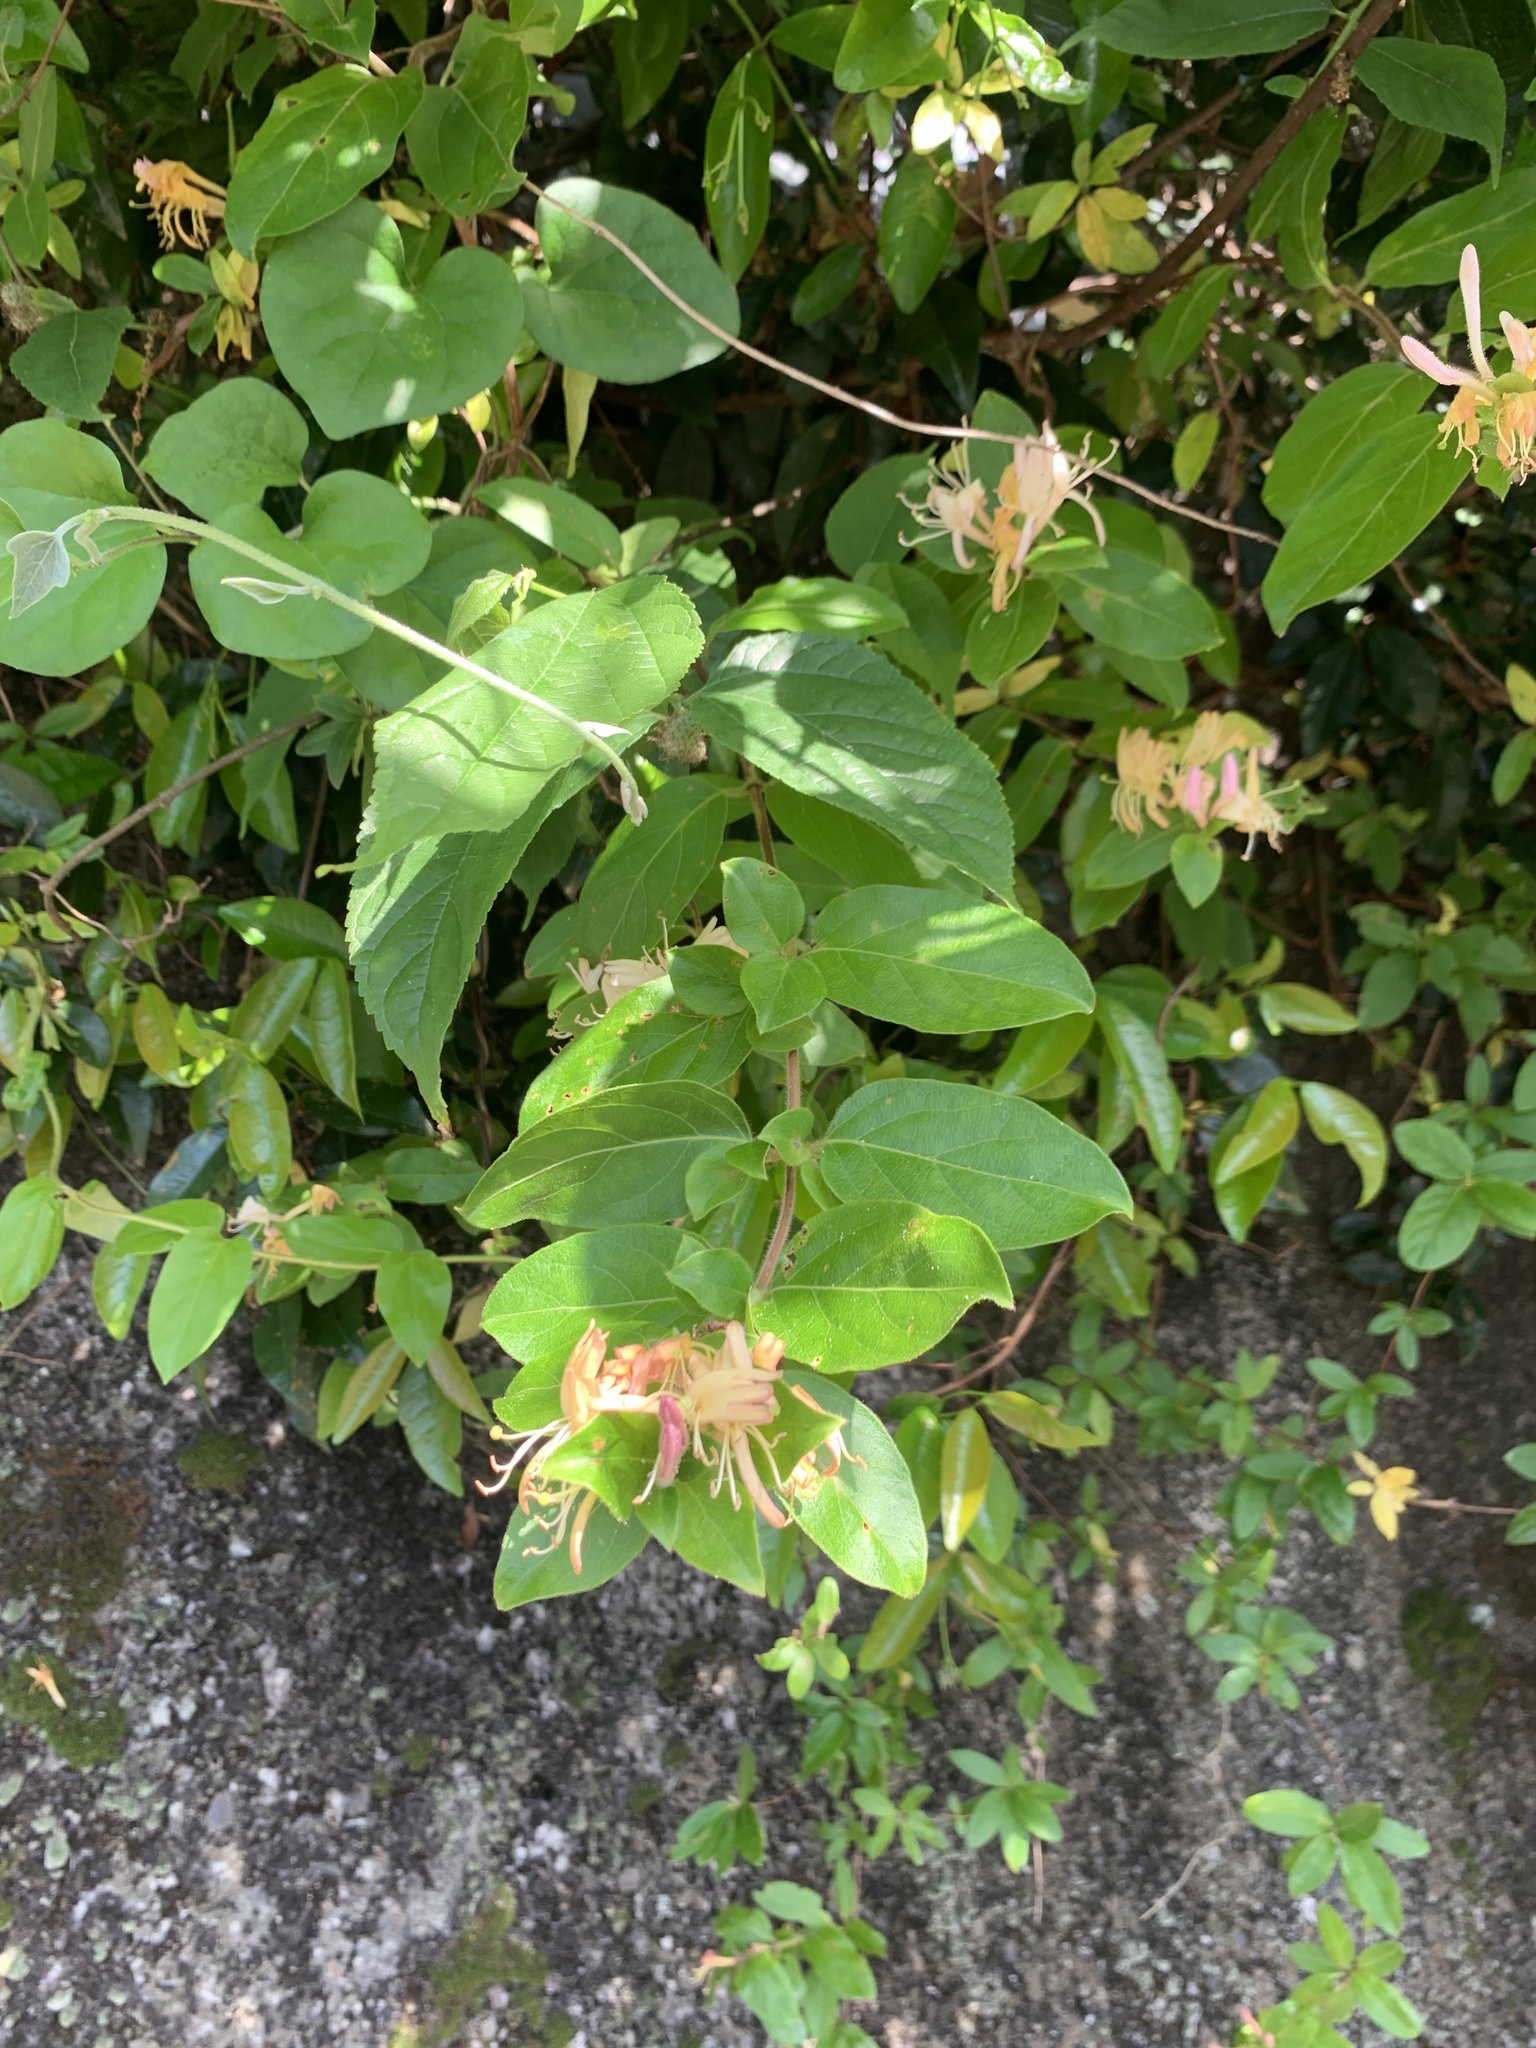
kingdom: Plantae
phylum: Tracheophyta
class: Magnoliopsida
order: Dipsacales
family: Caprifoliaceae
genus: Lonicera
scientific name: Lonicera japonica
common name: Japanese honeysuckle
